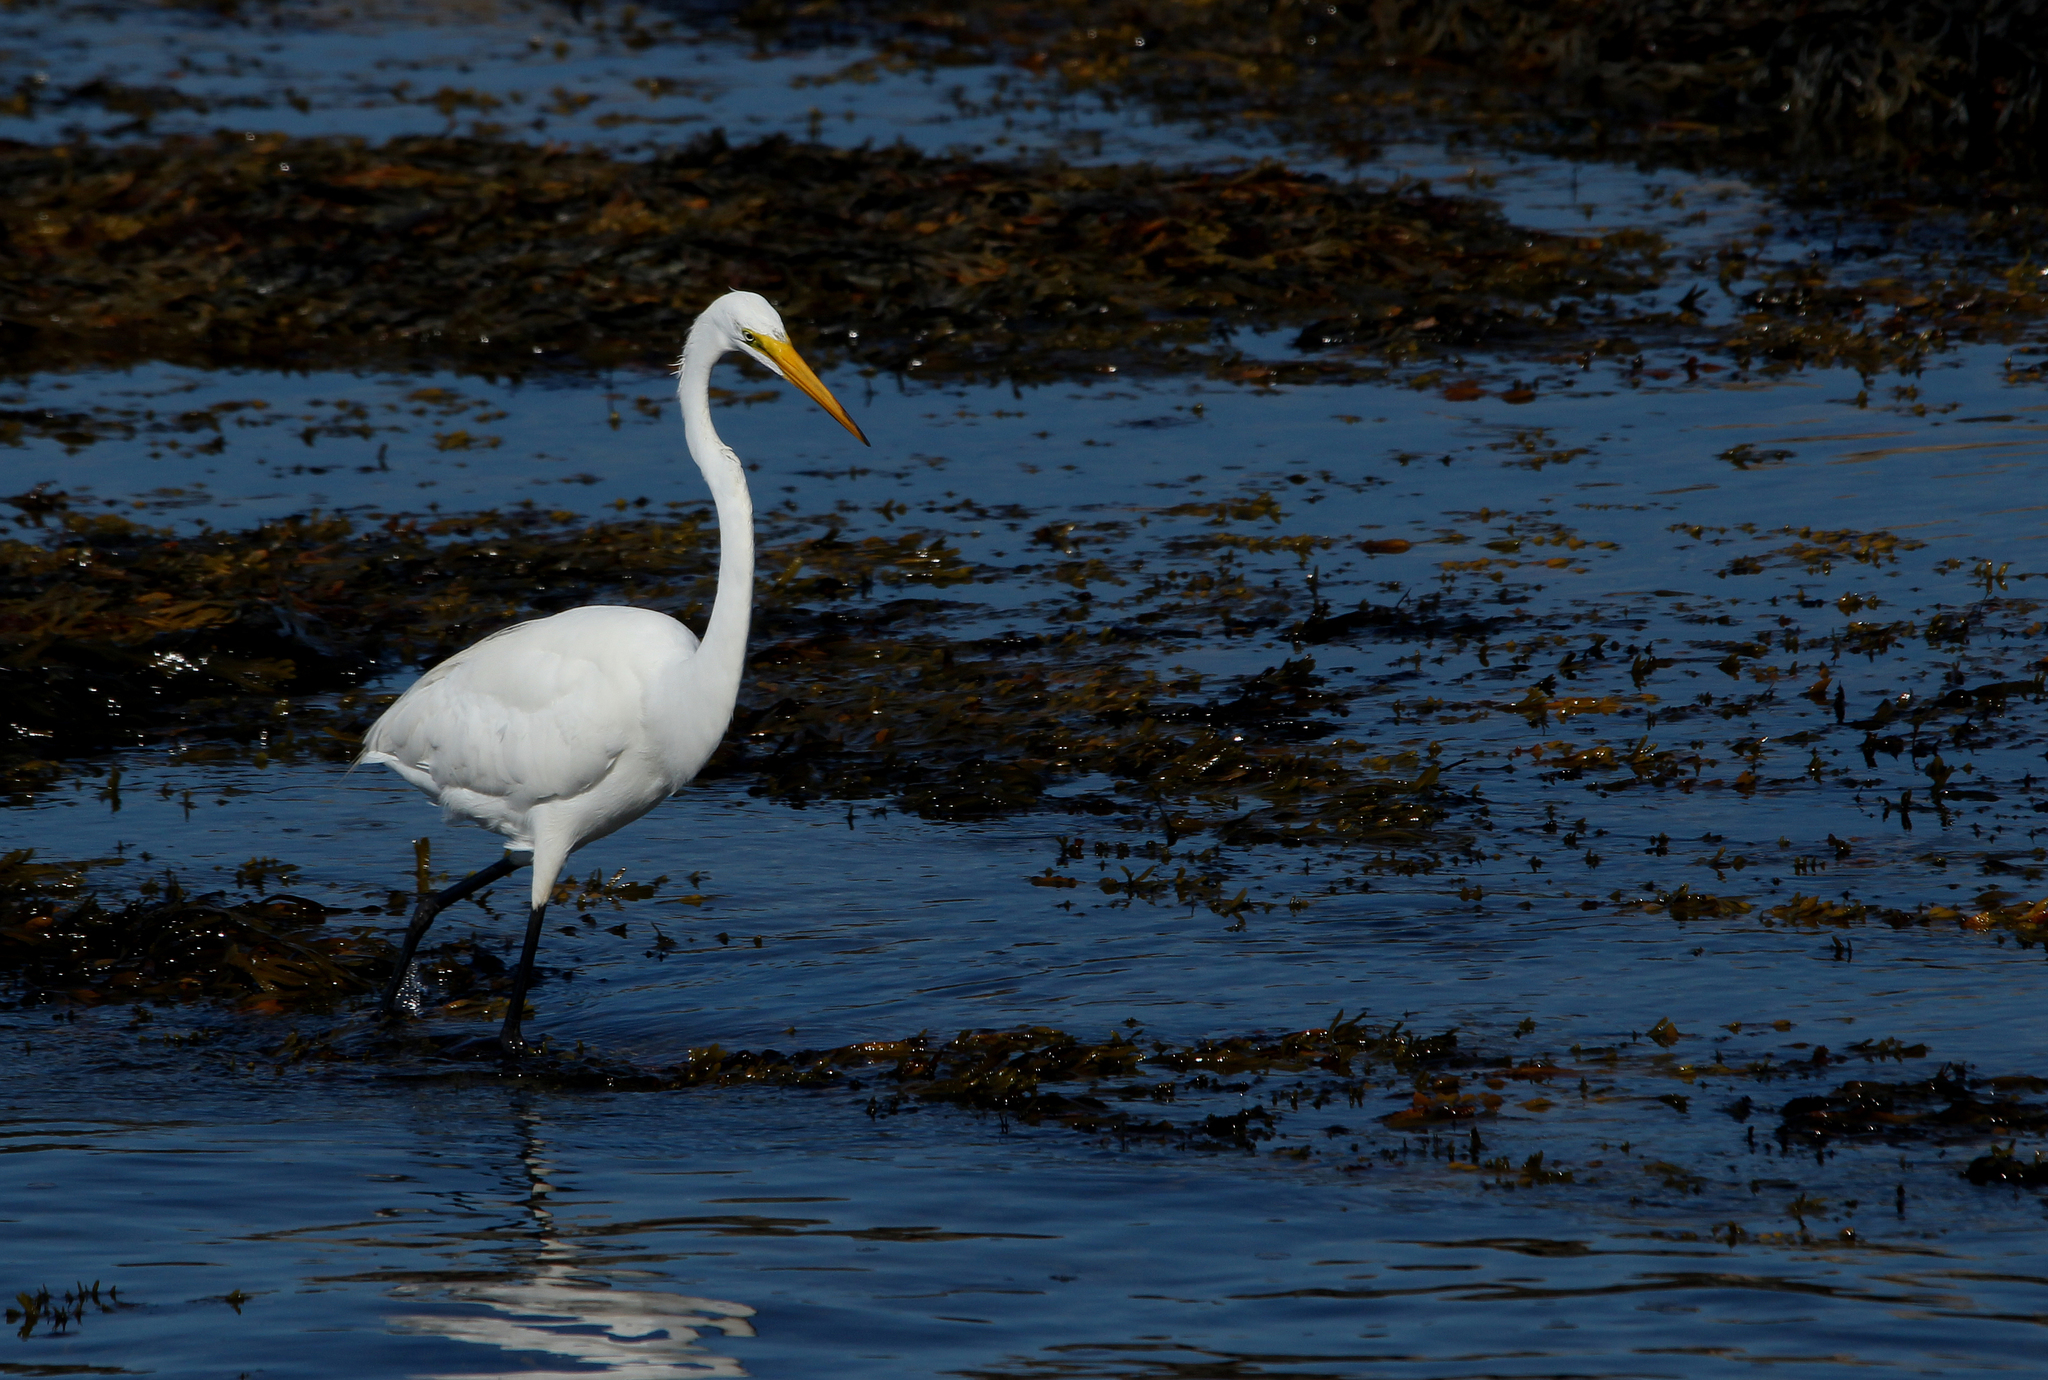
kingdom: Animalia
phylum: Chordata
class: Aves
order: Pelecaniformes
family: Ardeidae
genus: Ardea
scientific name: Ardea alba
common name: Great egret
